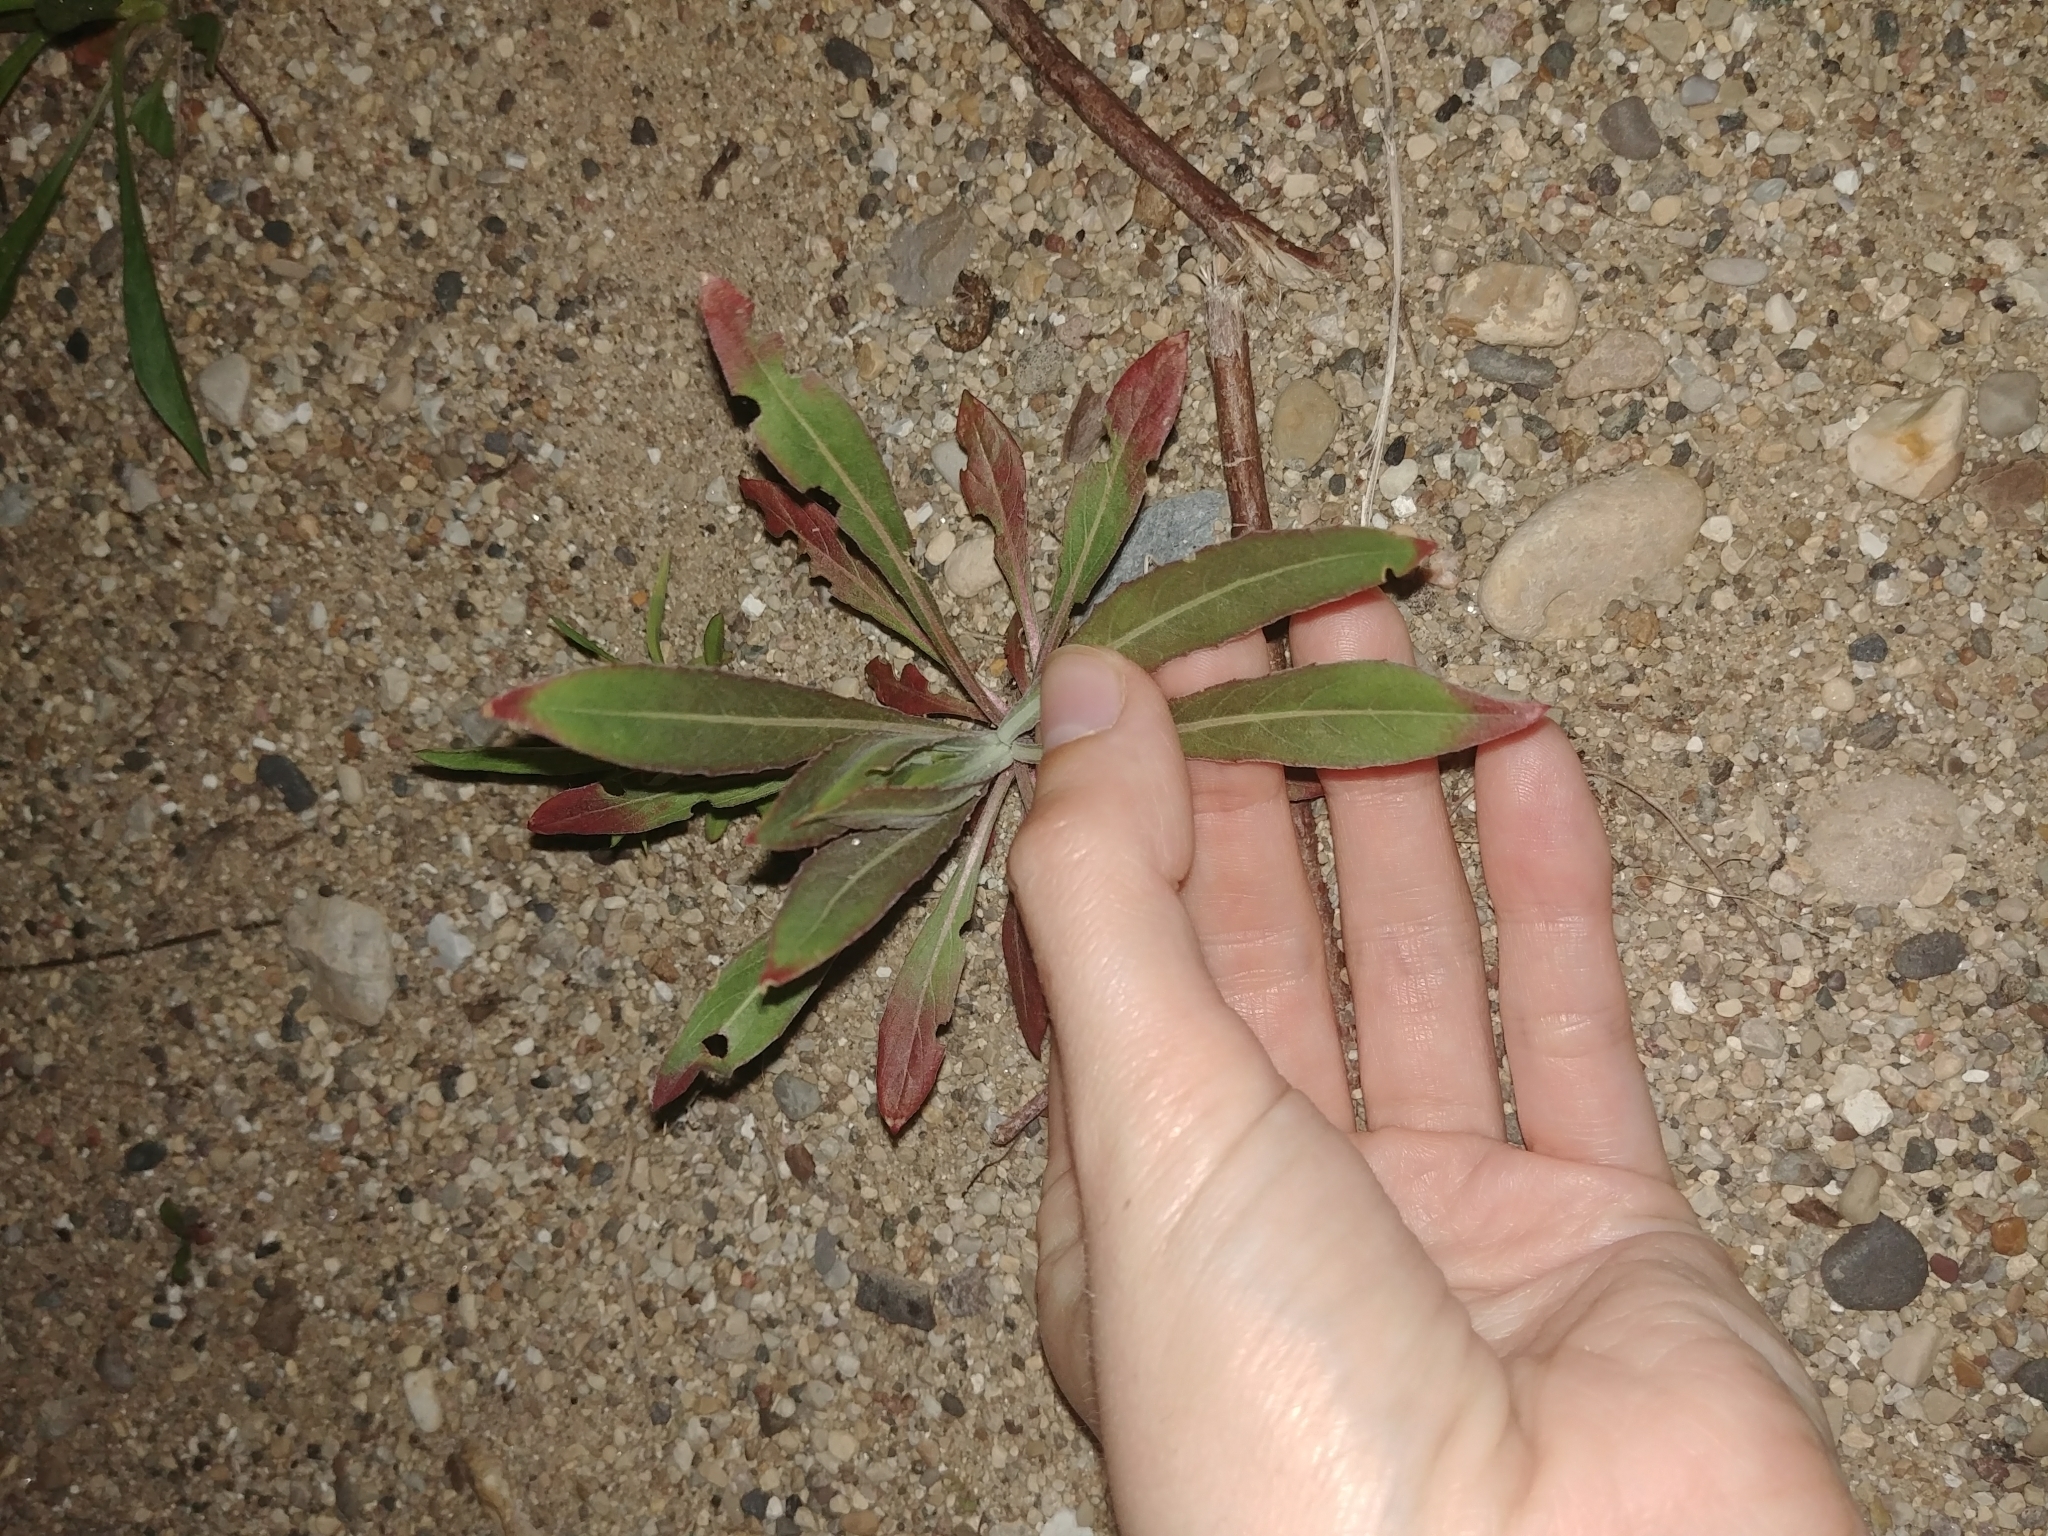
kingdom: Plantae
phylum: Tracheophyta
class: Magnoliopsida
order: Myrtales
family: Onagraceae
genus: Oenothera
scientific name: Oenothera biennis
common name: Common evening-primrose
